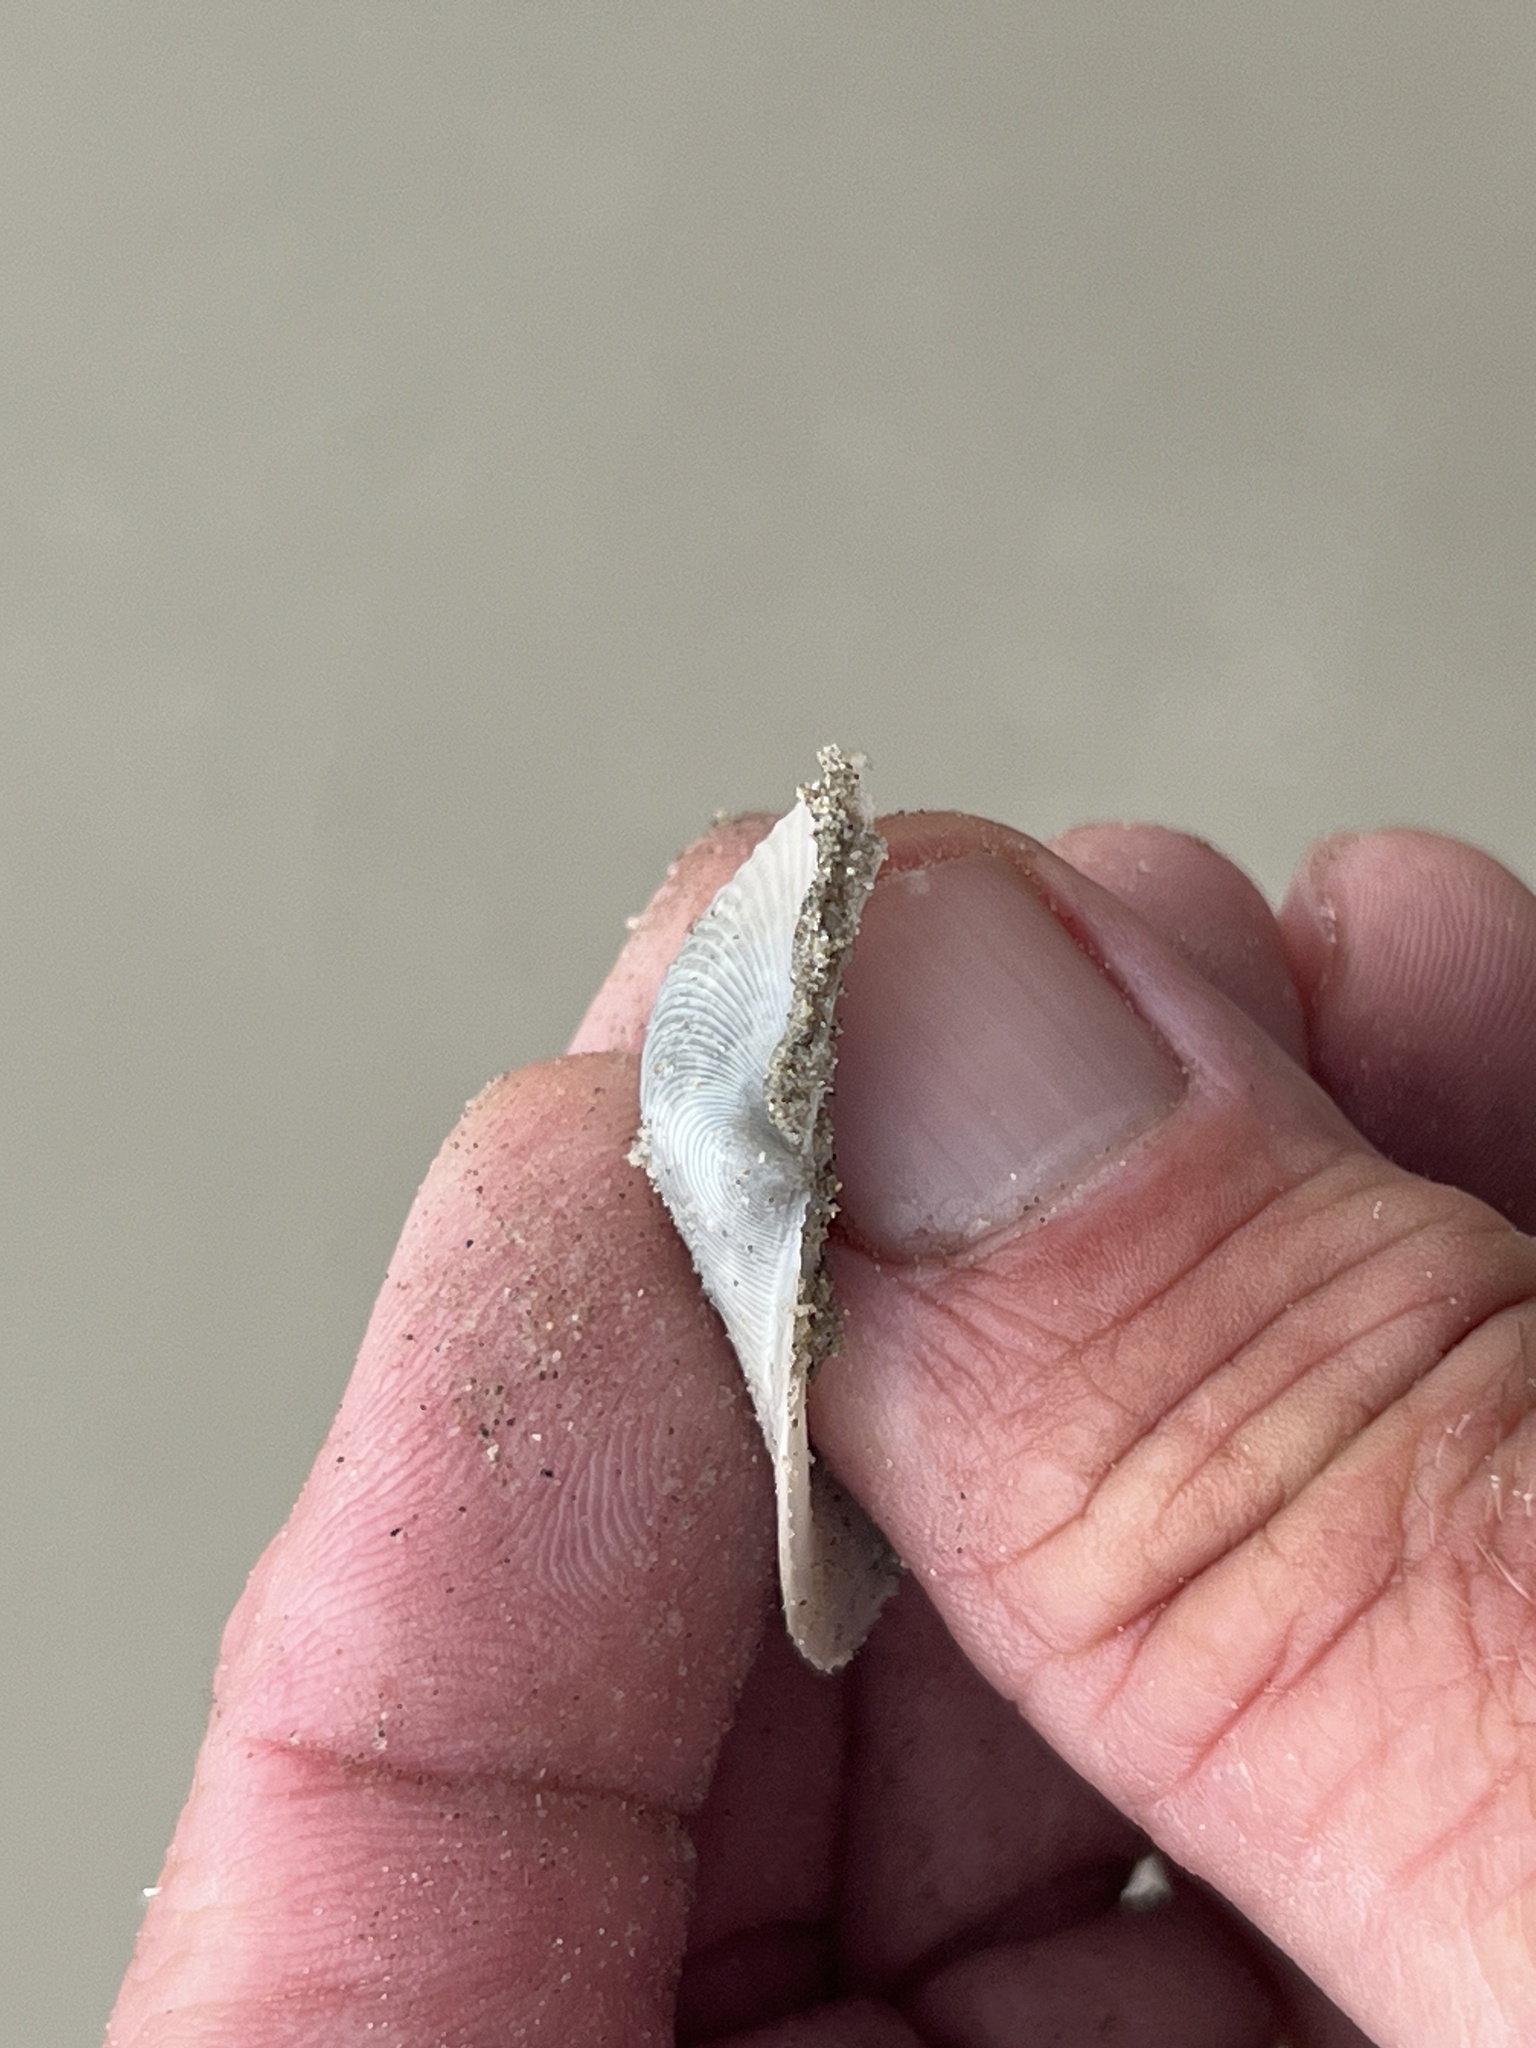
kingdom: Animalia
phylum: Mollusca
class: Bivalvia
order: Venerida
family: Anatinellidae
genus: Raeta
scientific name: Raeta plicatella
